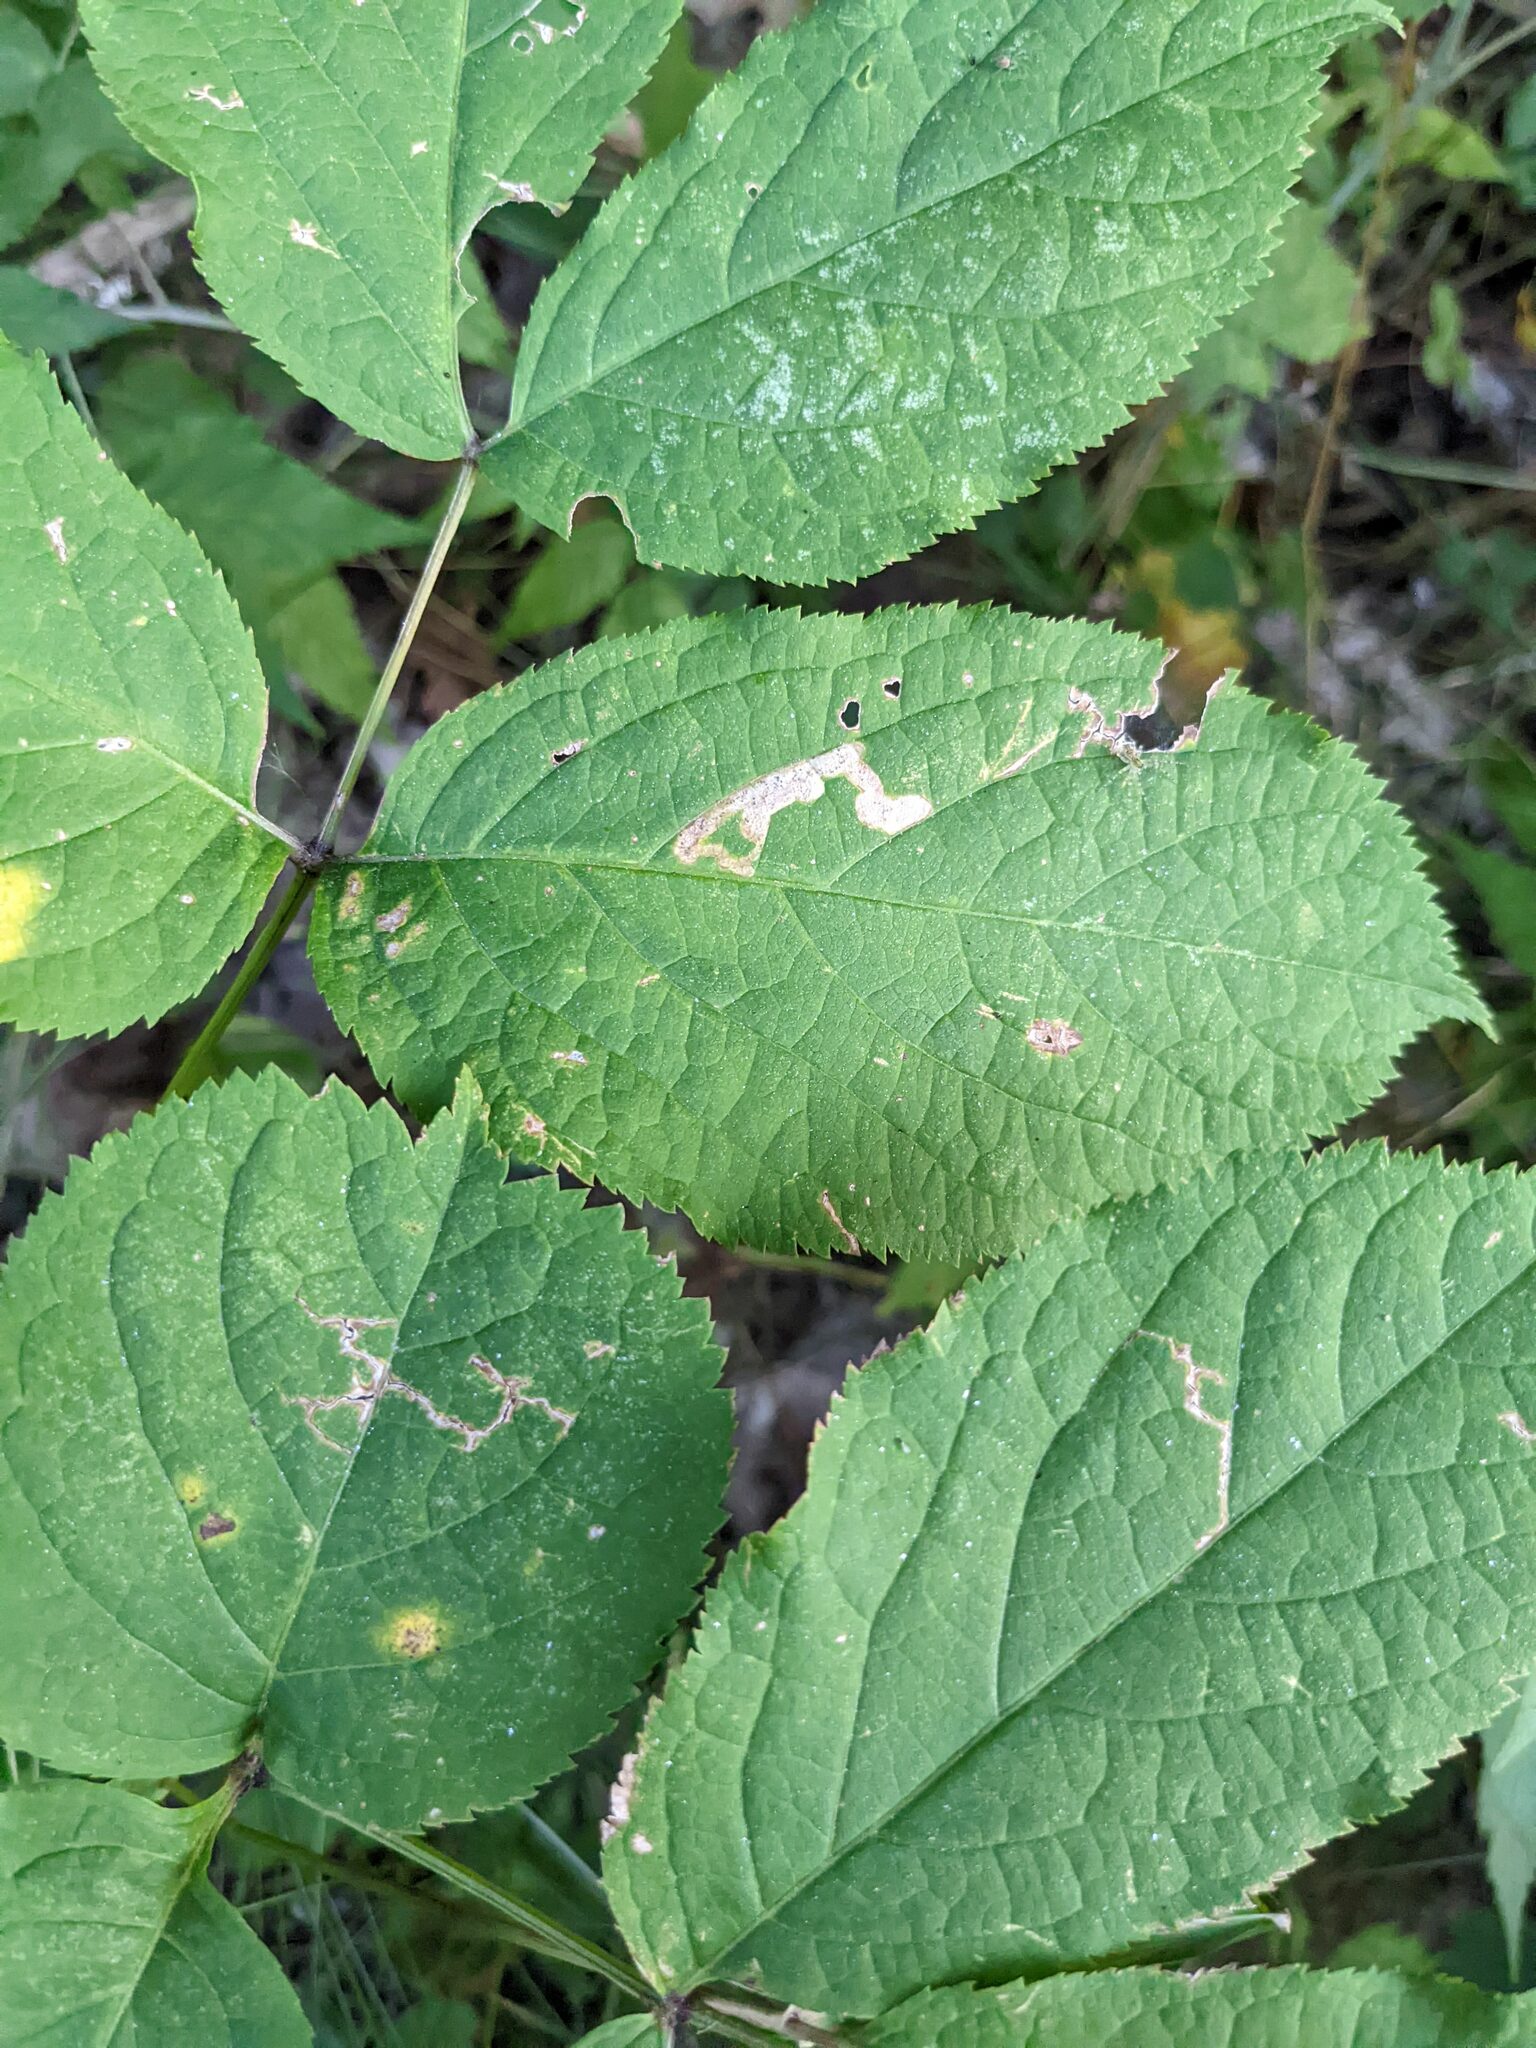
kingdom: Animalia
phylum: Arthropoda
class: Insecta
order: Diptera
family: Agromyzidae
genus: Phytomyza
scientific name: Phytomyza aralivora
